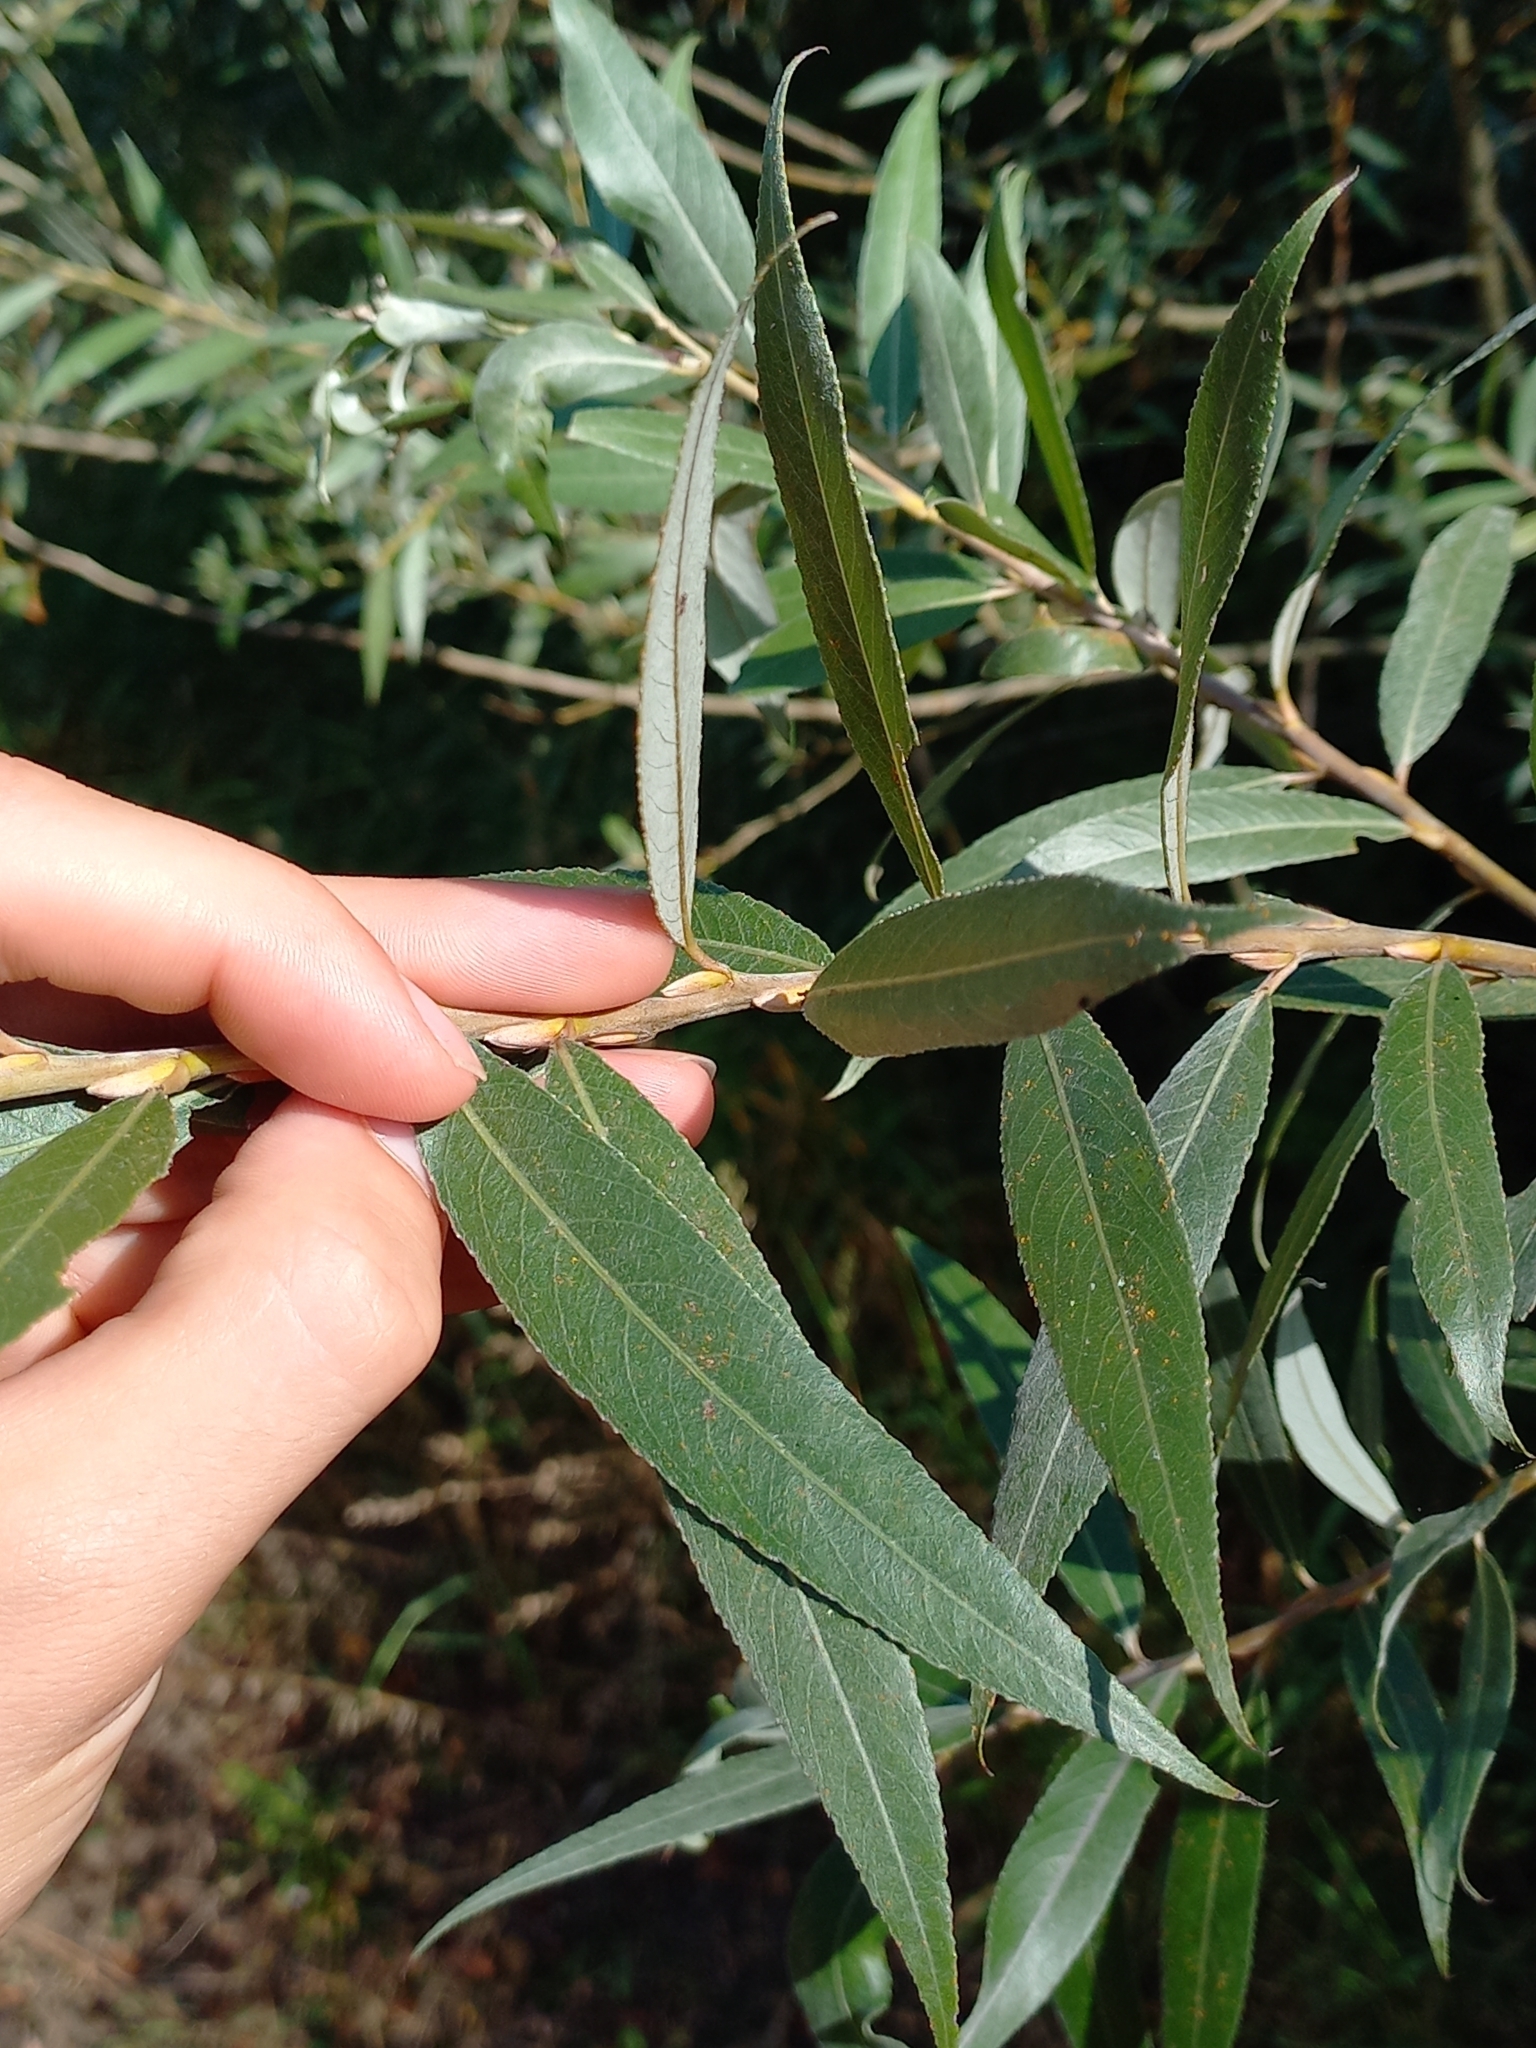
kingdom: Plantae
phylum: Tracheophyta
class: Magnoliopsida
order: Malpighiales
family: Salicaceae
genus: Salix
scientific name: Salix alba
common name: White willow
